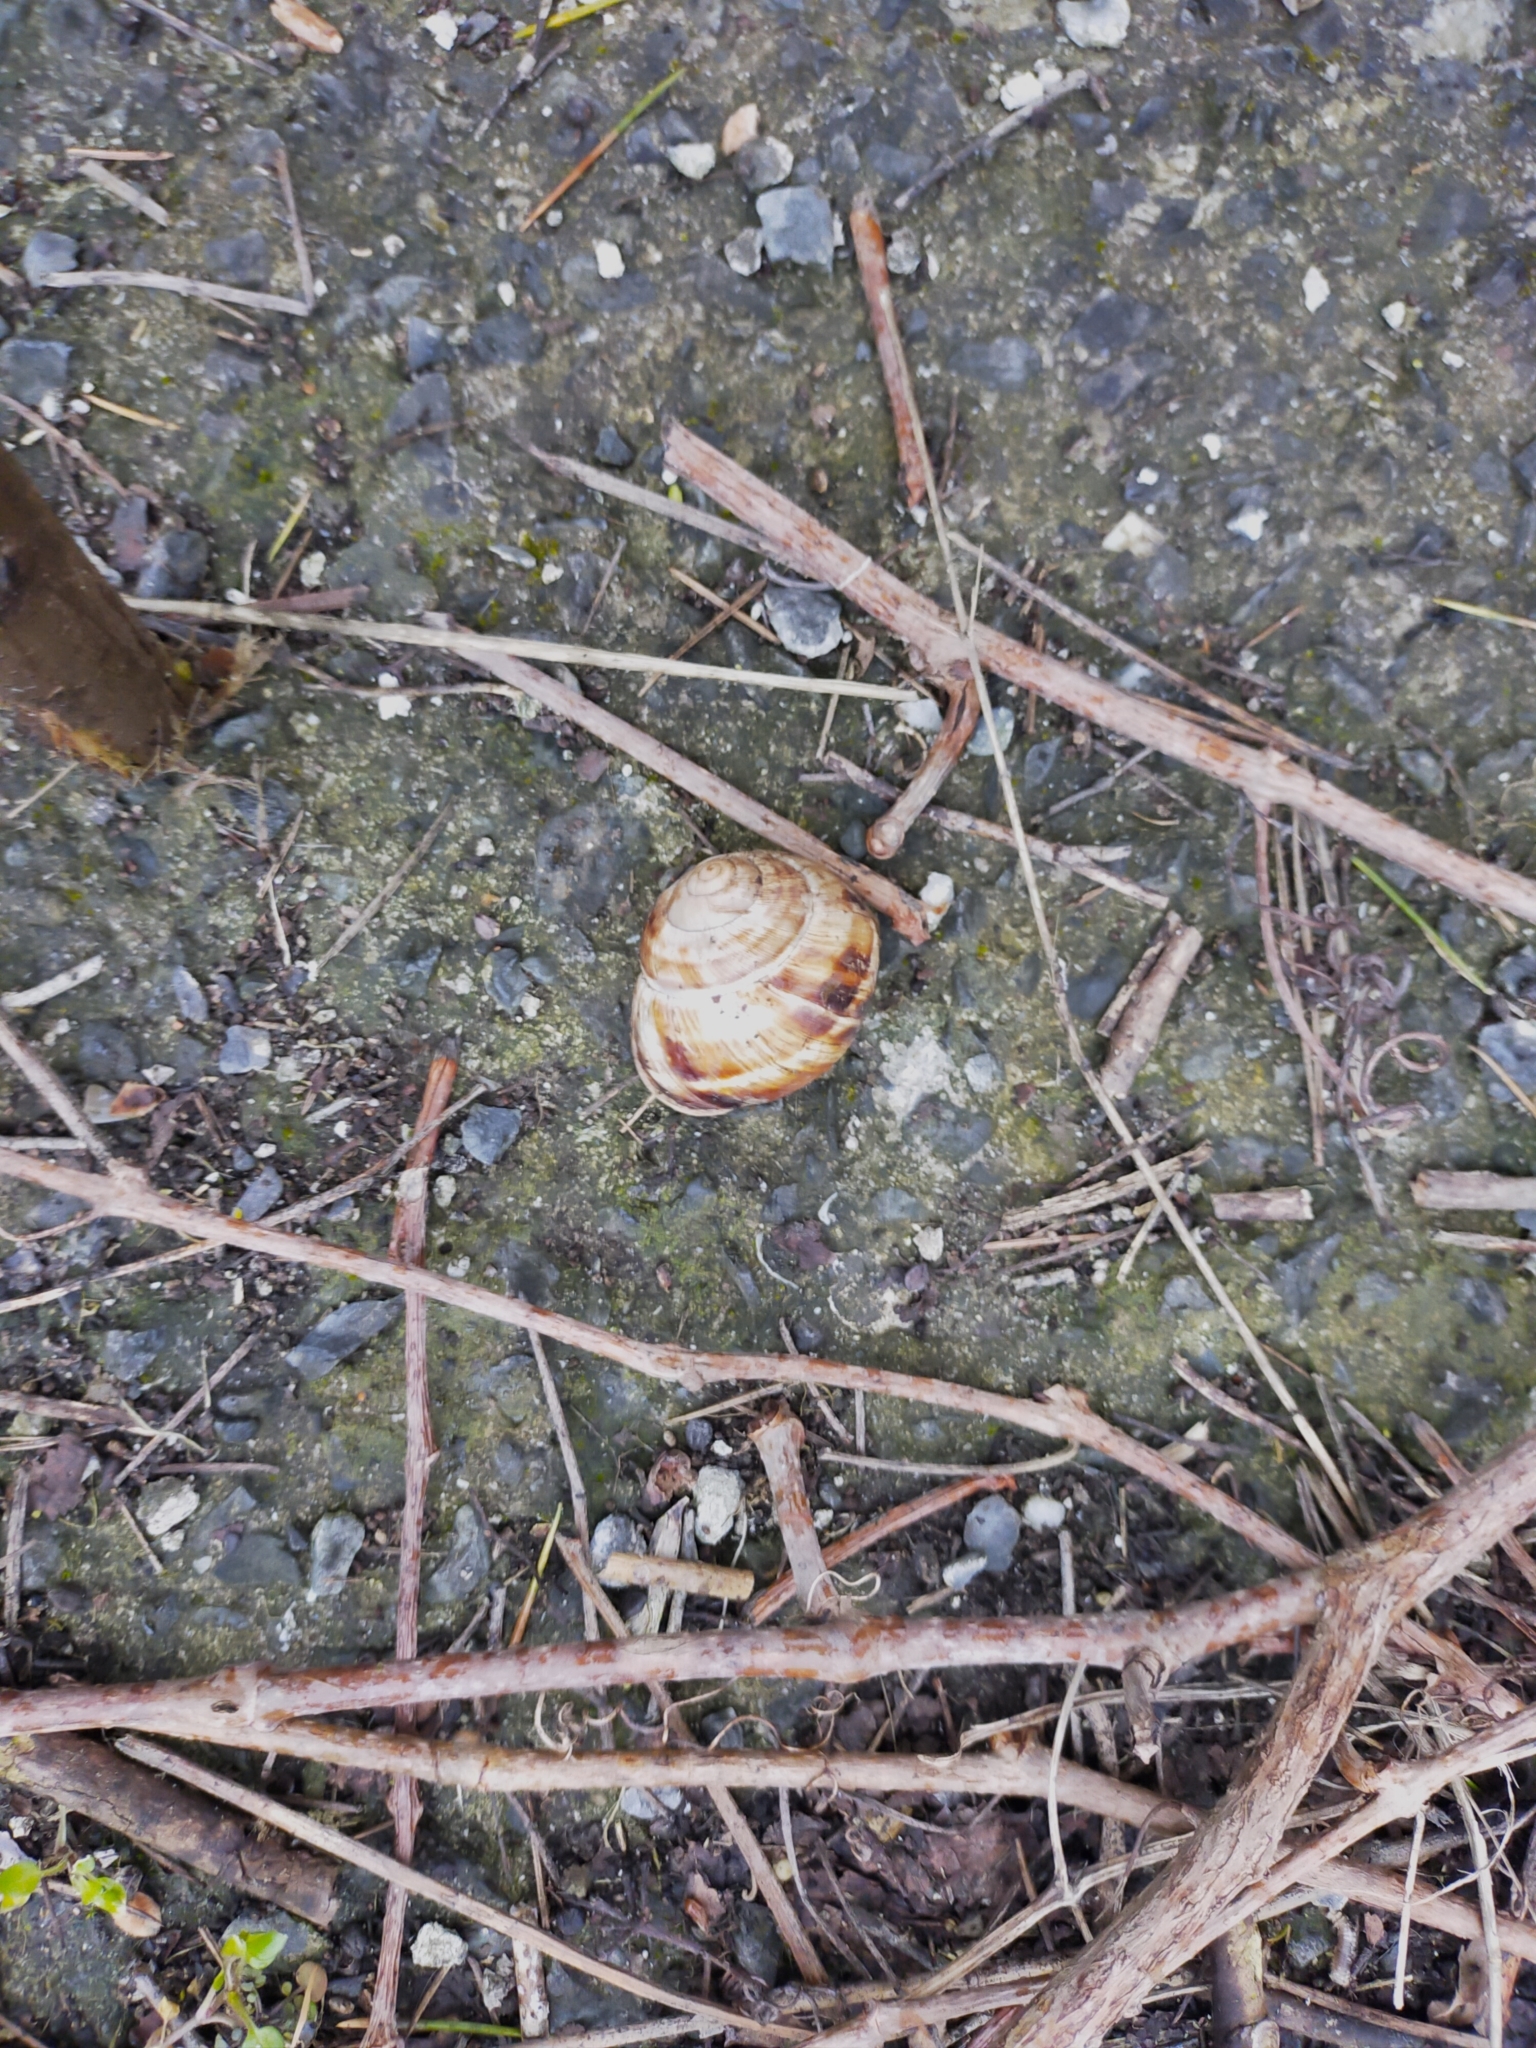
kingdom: Animalia
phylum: Mollusca
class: Gastropoda
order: Stylommatophora
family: Helicidae
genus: Helix
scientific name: Helix lucorum
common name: Turkish snail
